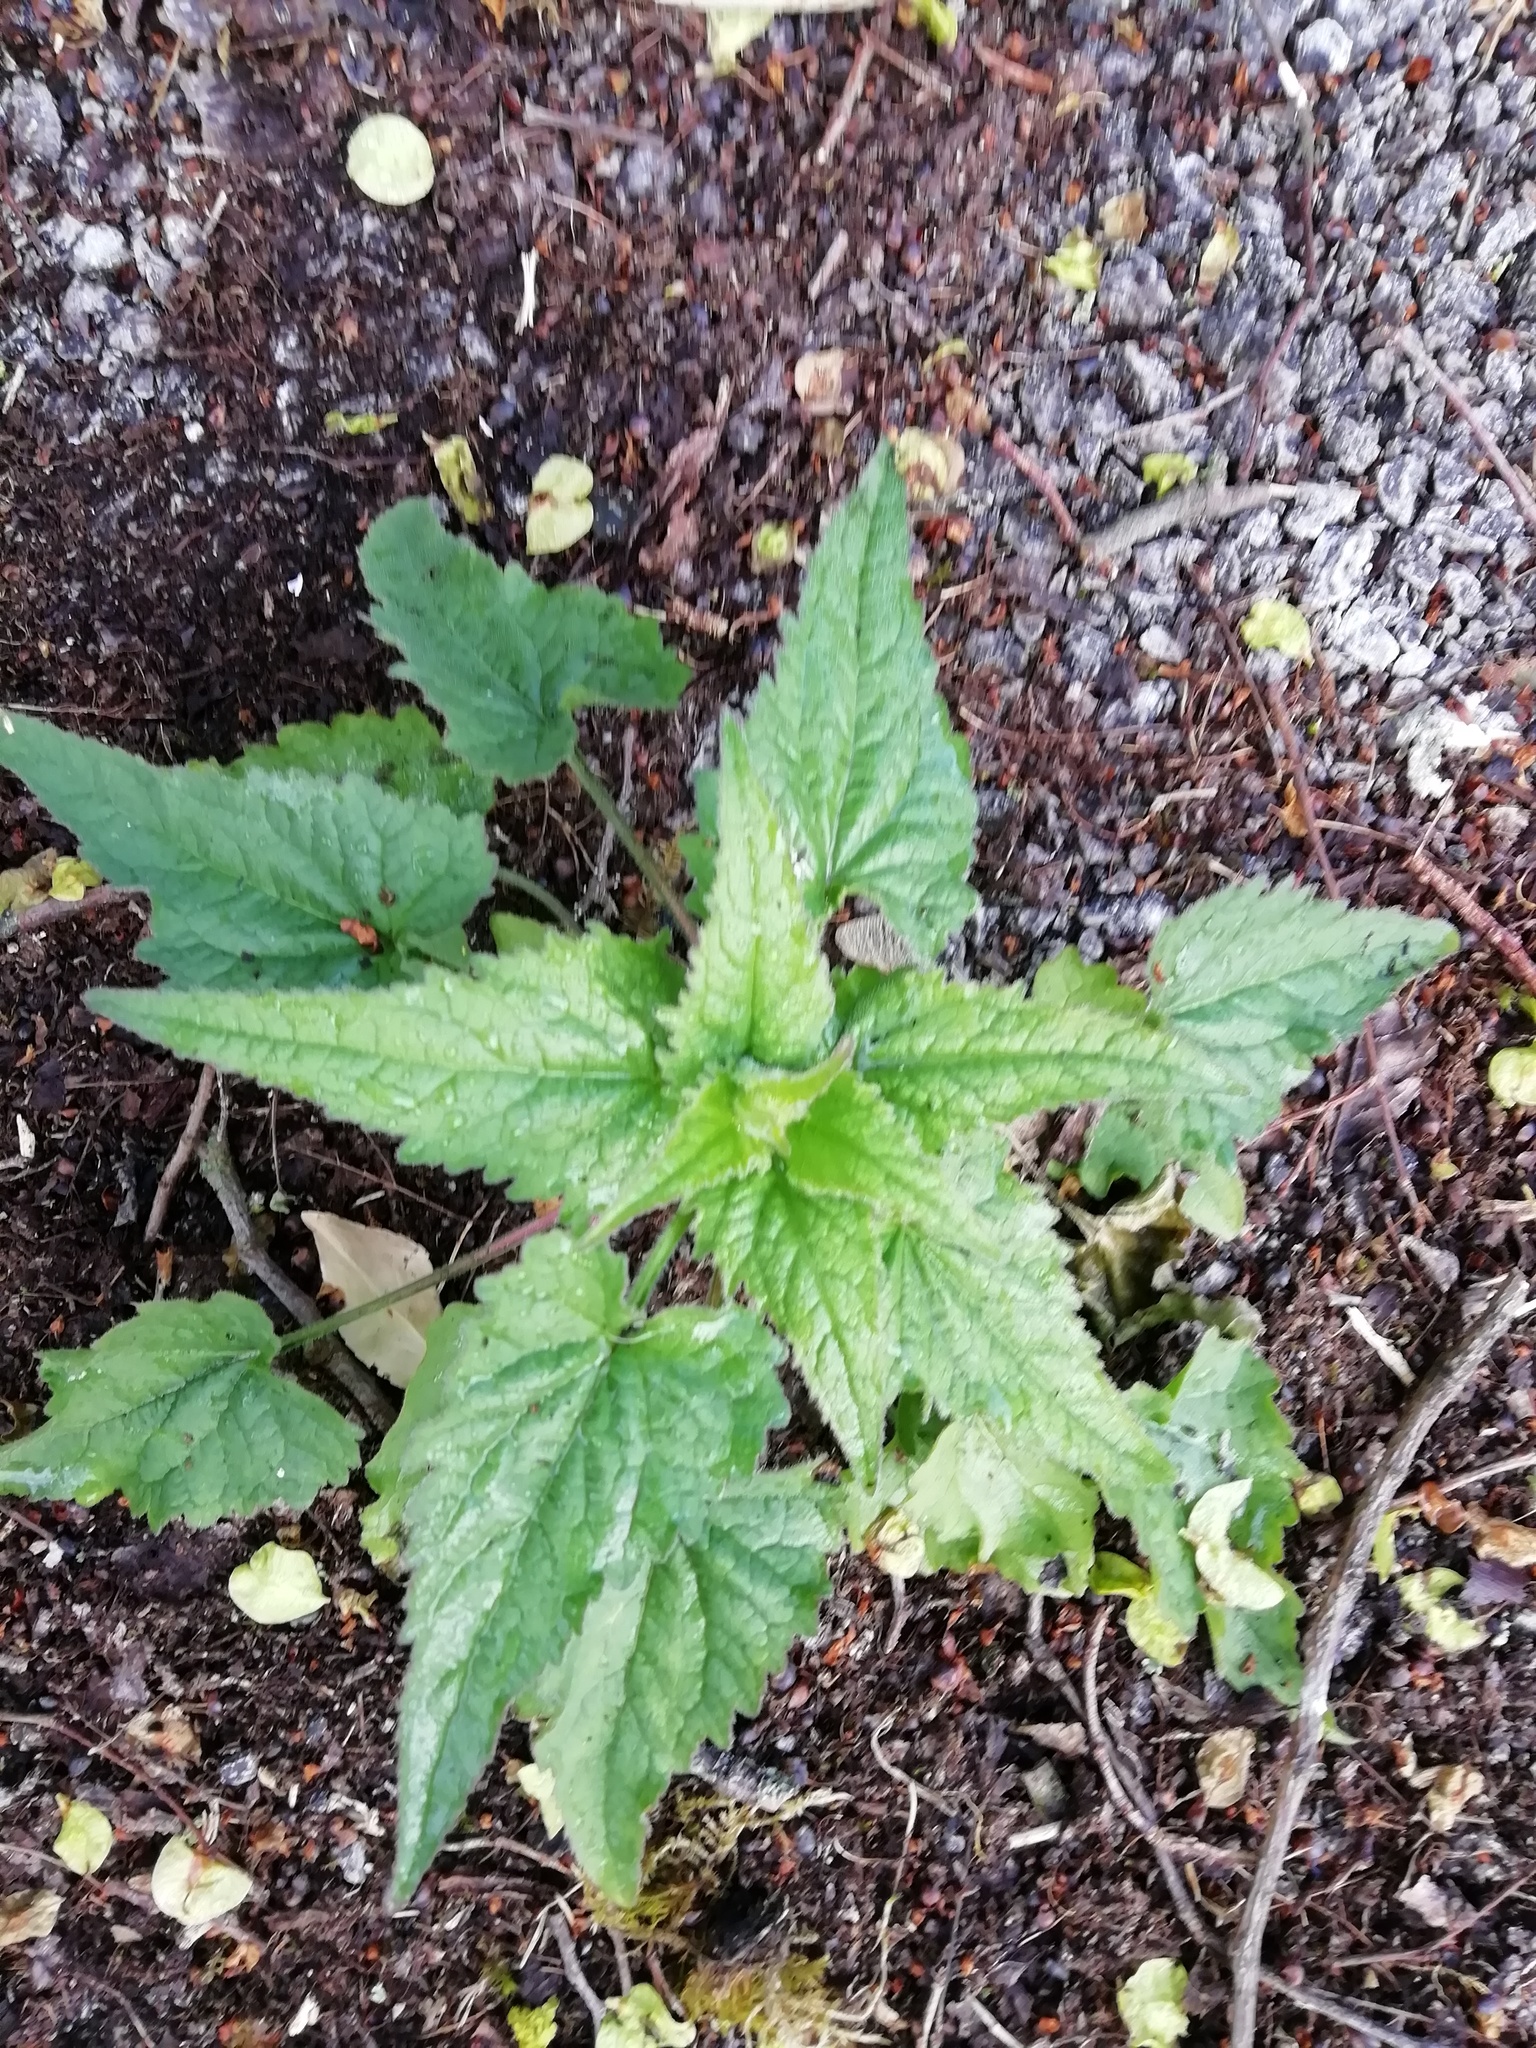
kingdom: Plantae
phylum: Tracheophyta
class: Magnoliopsida
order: Asterales
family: Campanulaceae
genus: Campanula
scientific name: Campanula trachelium
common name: Nettle-leaved bellflower
